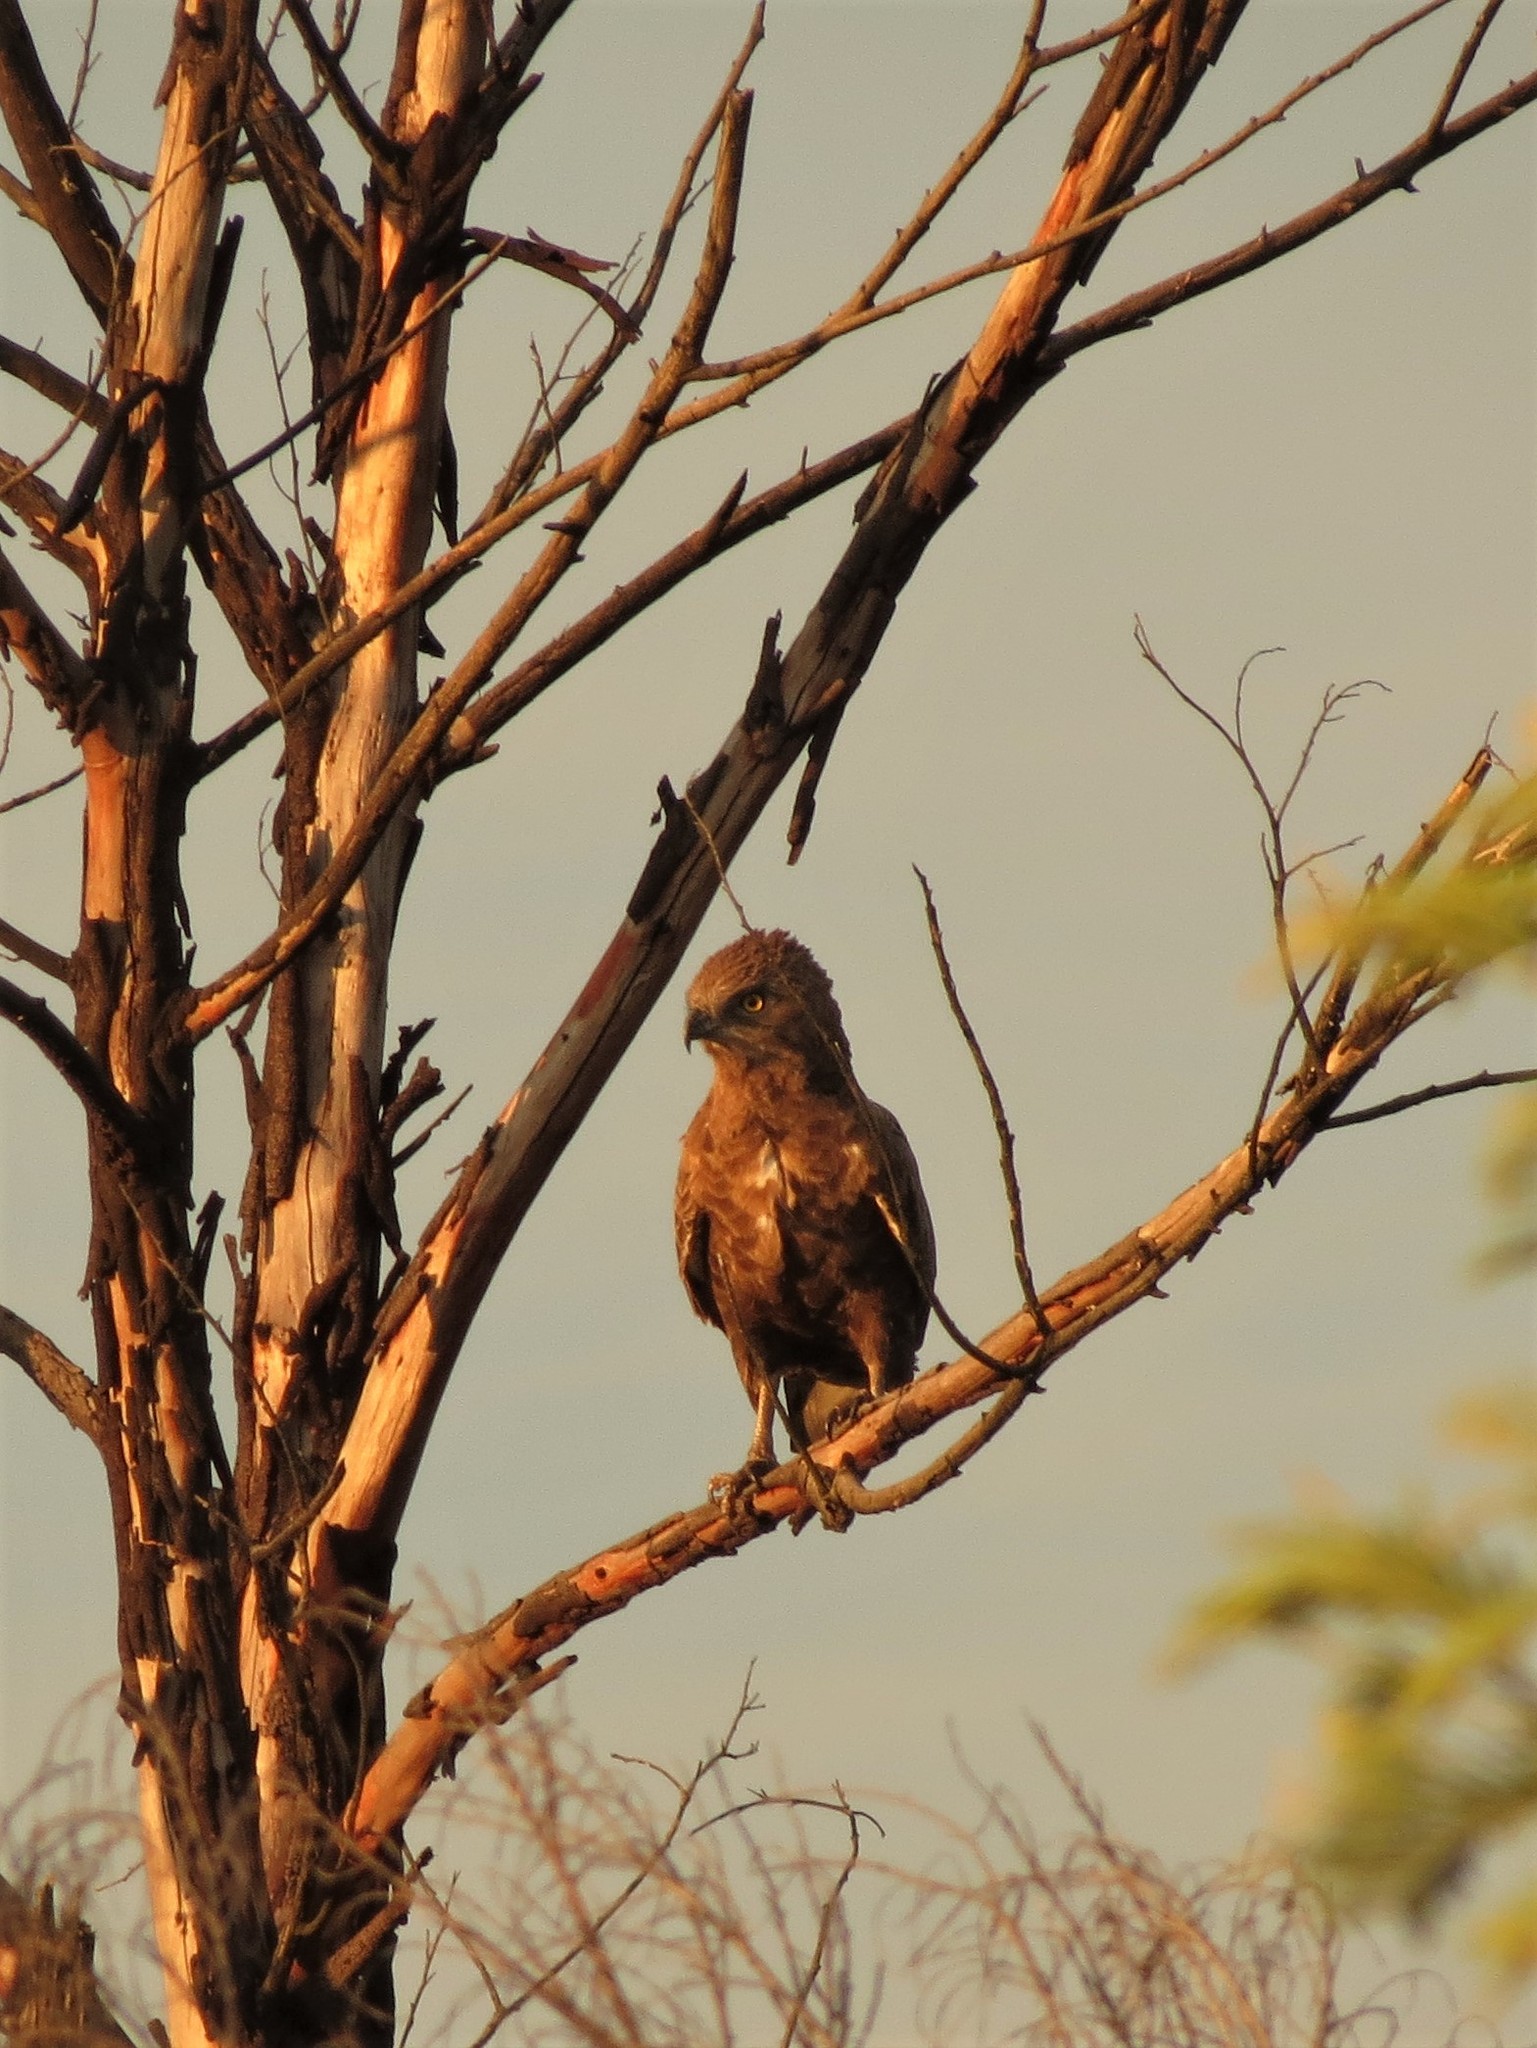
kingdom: Animalia
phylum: Chordata
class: Aves
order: Accipitriformes
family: Accipitridae
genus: Circaetus
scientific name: Circaetus cinereus
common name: Brown snake eagle
